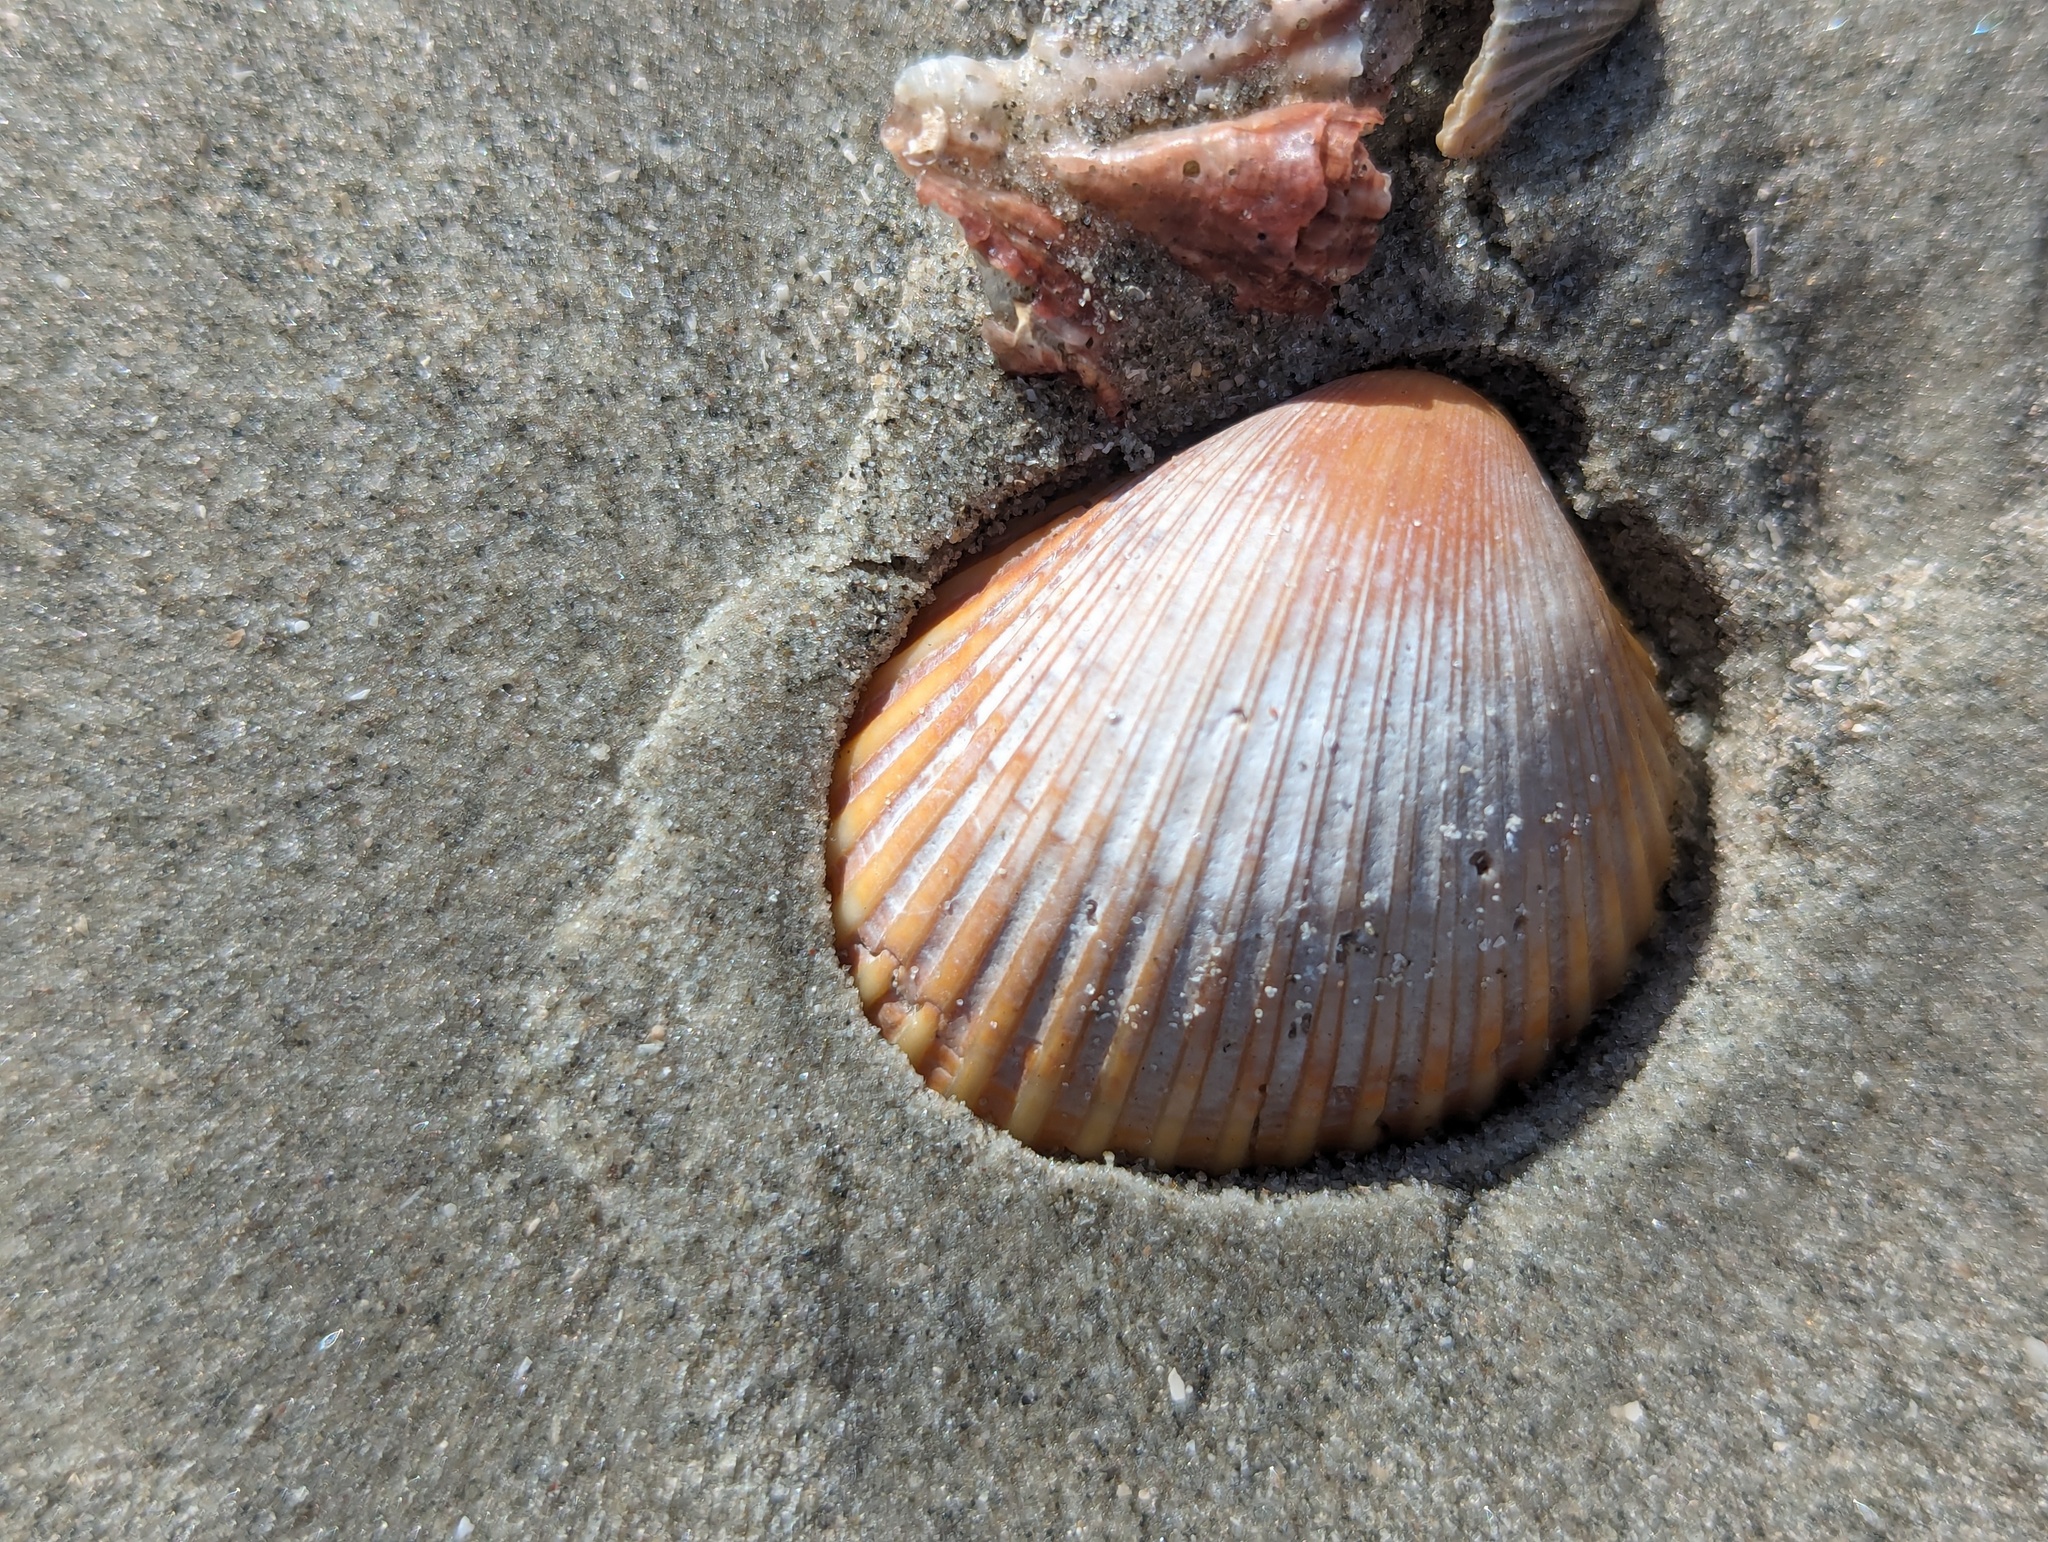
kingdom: Animalia
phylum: Mollusca
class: Bivalvia
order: Arcida
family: Arcidae
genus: Lunarca
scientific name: Lunarca ovalis
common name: Blood ark
